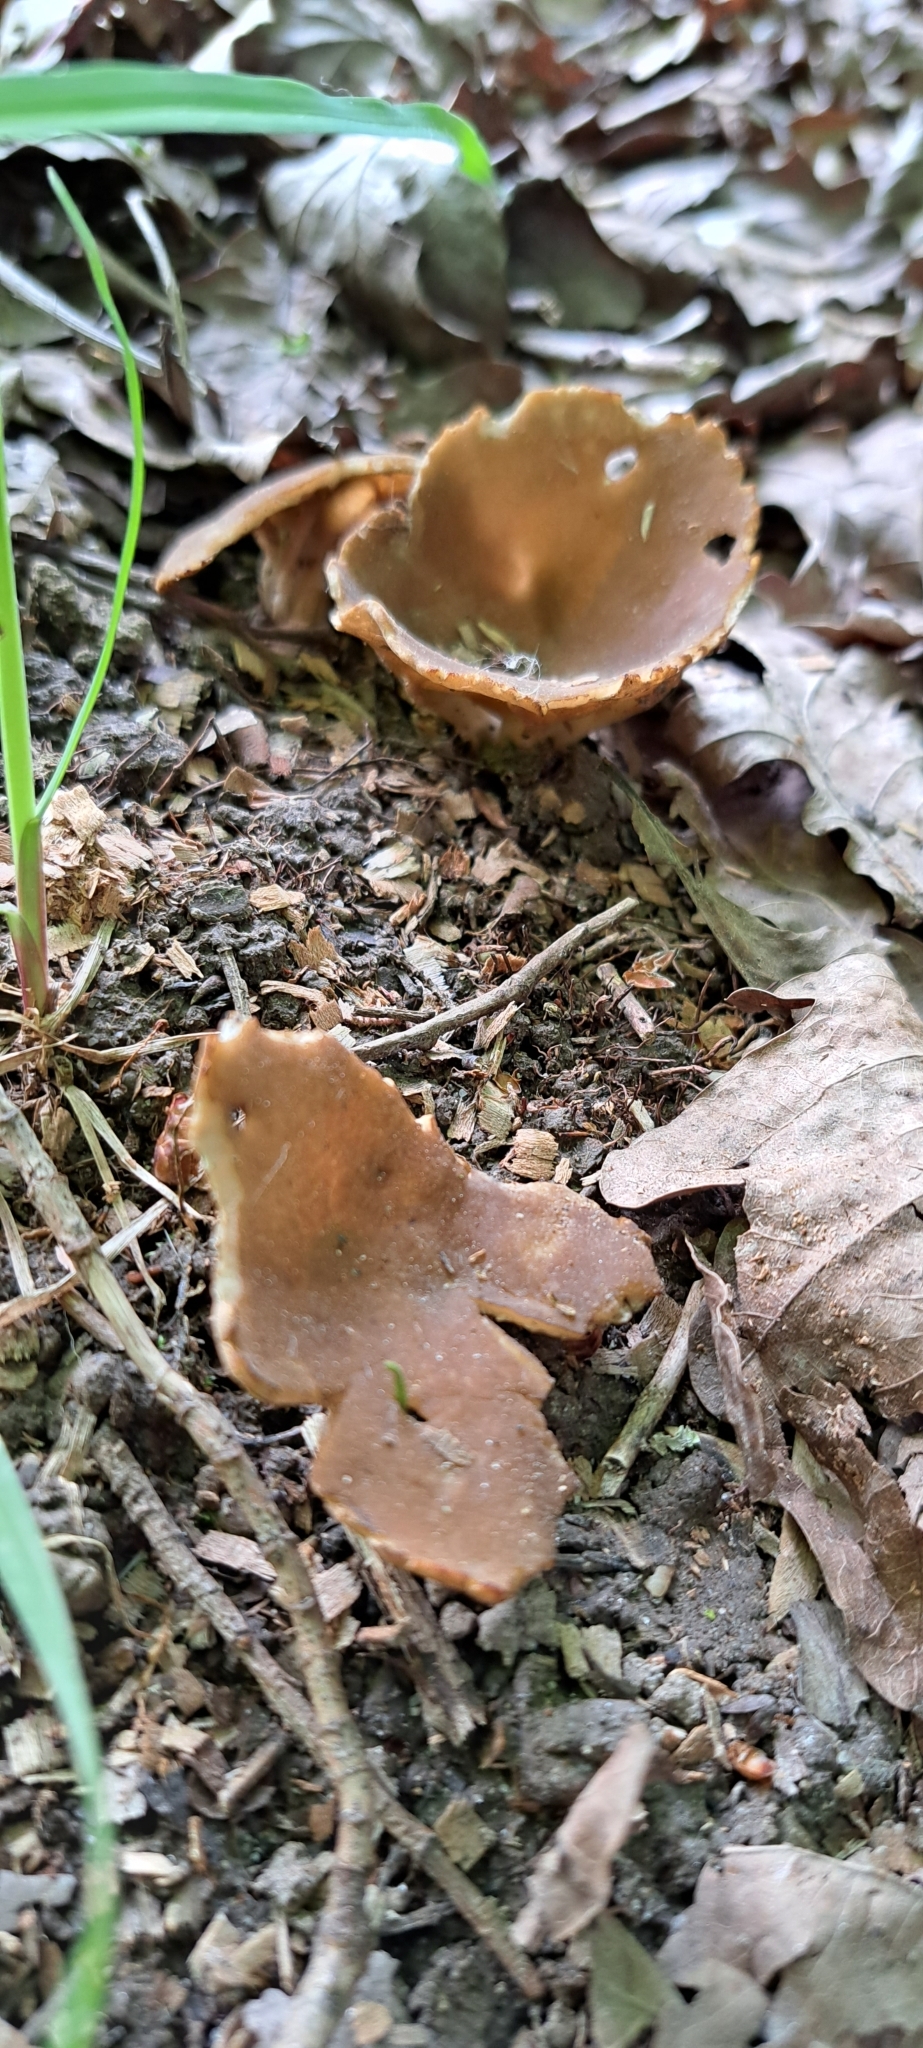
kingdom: Fungi
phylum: Ascomycota
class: Pezizomycetes
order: Pezizales
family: Helvellaceae
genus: Helvella
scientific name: Helvella acetabulum
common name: Vinegar cup
